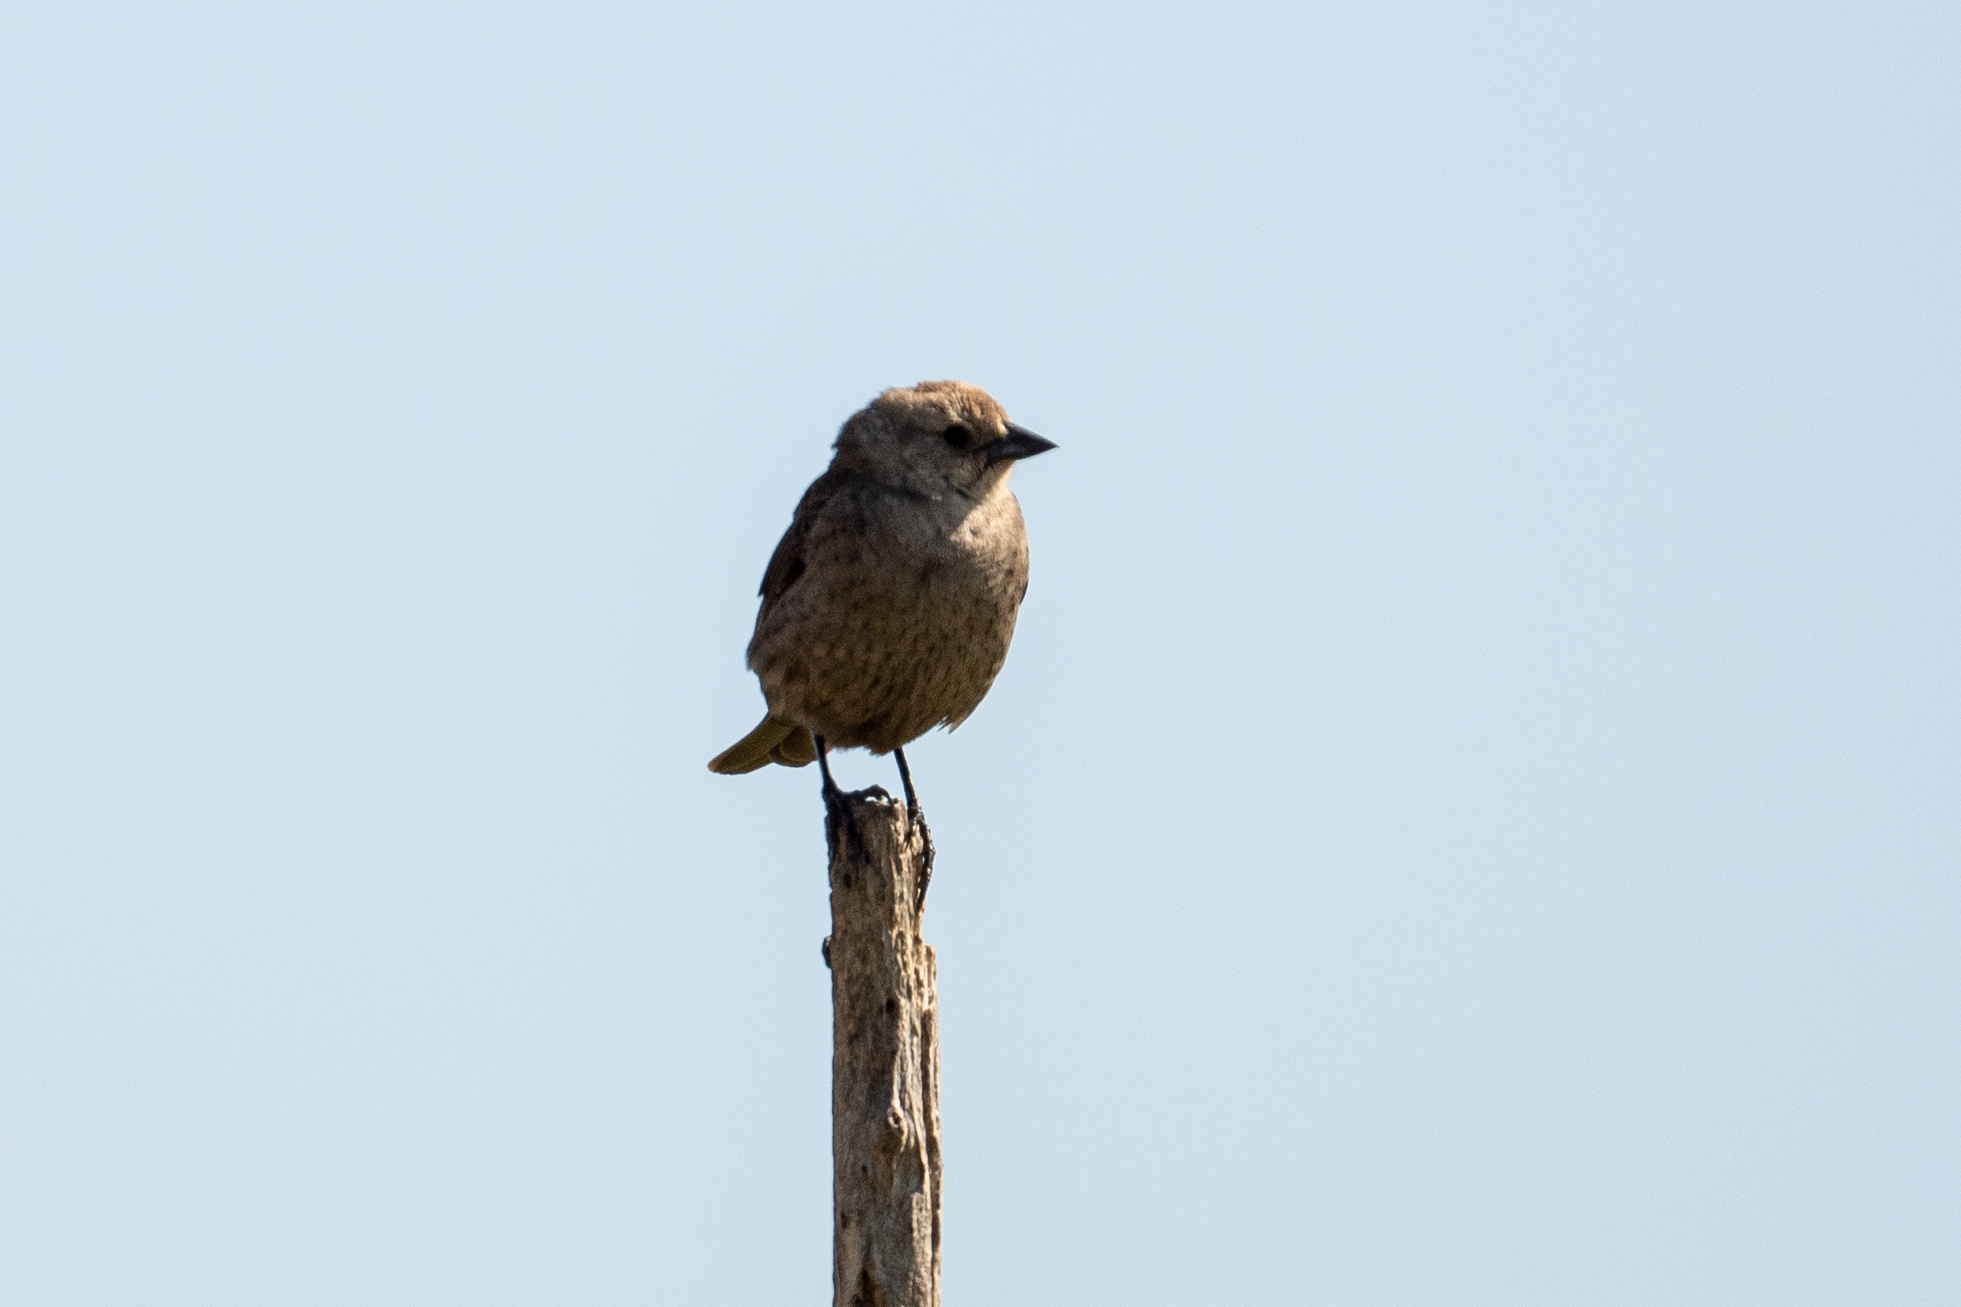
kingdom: Animalia
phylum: Chordata
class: Aves
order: Passeriformes
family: Icteridae
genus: Molothrus
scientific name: Molothrus ater
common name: Brown-headed cowbird
